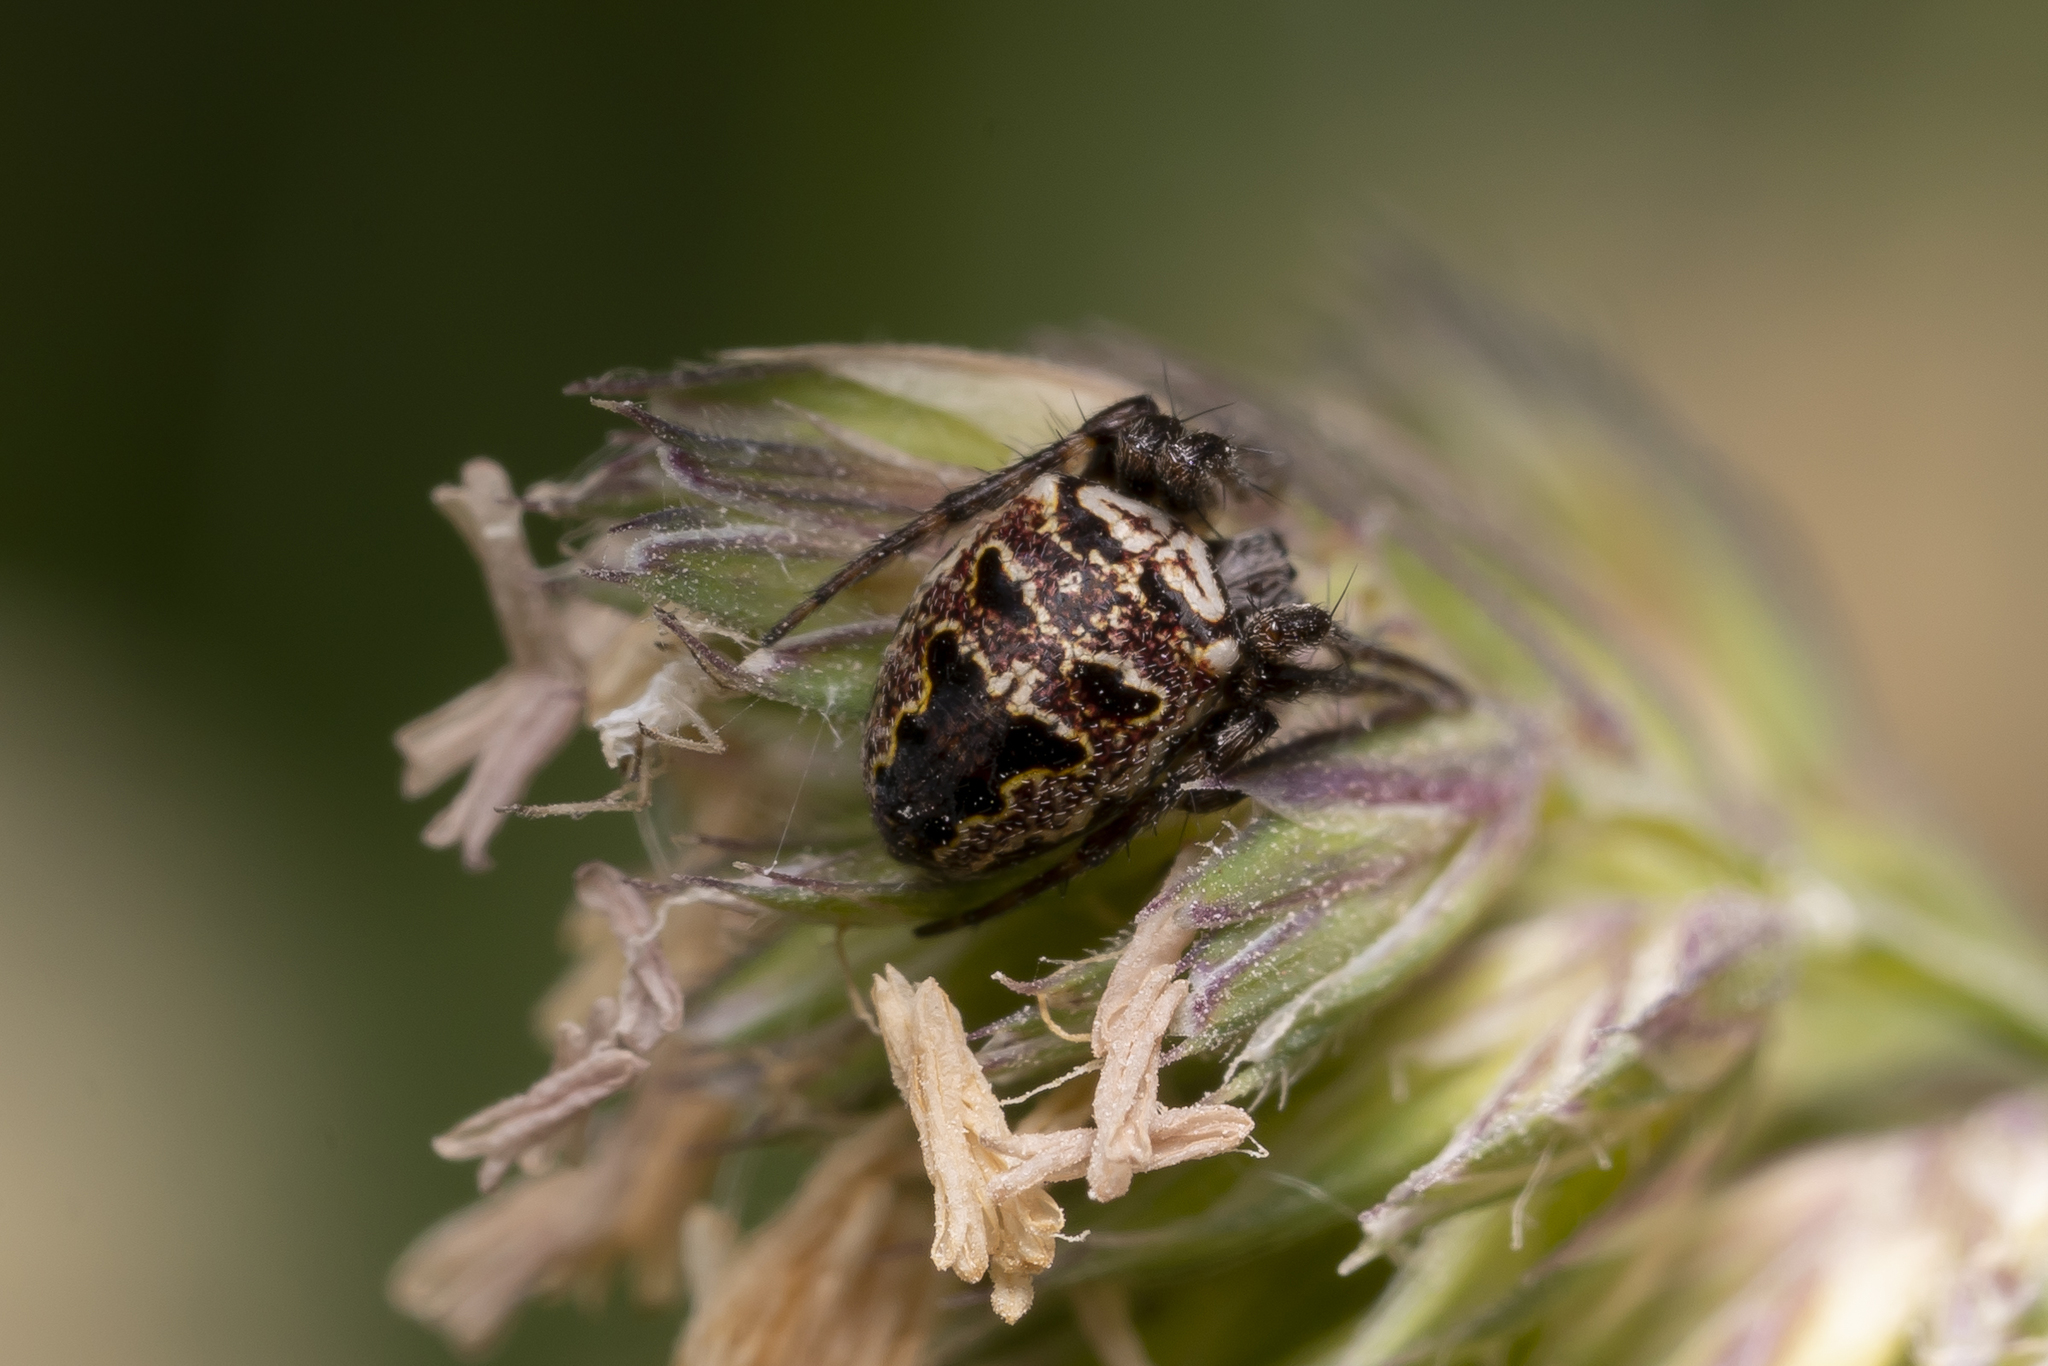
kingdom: Animalia
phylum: Arthropoda
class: Arachnida
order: Araneae
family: Araneidae
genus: Zilla
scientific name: Zilla diodia
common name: Zilla diodia
